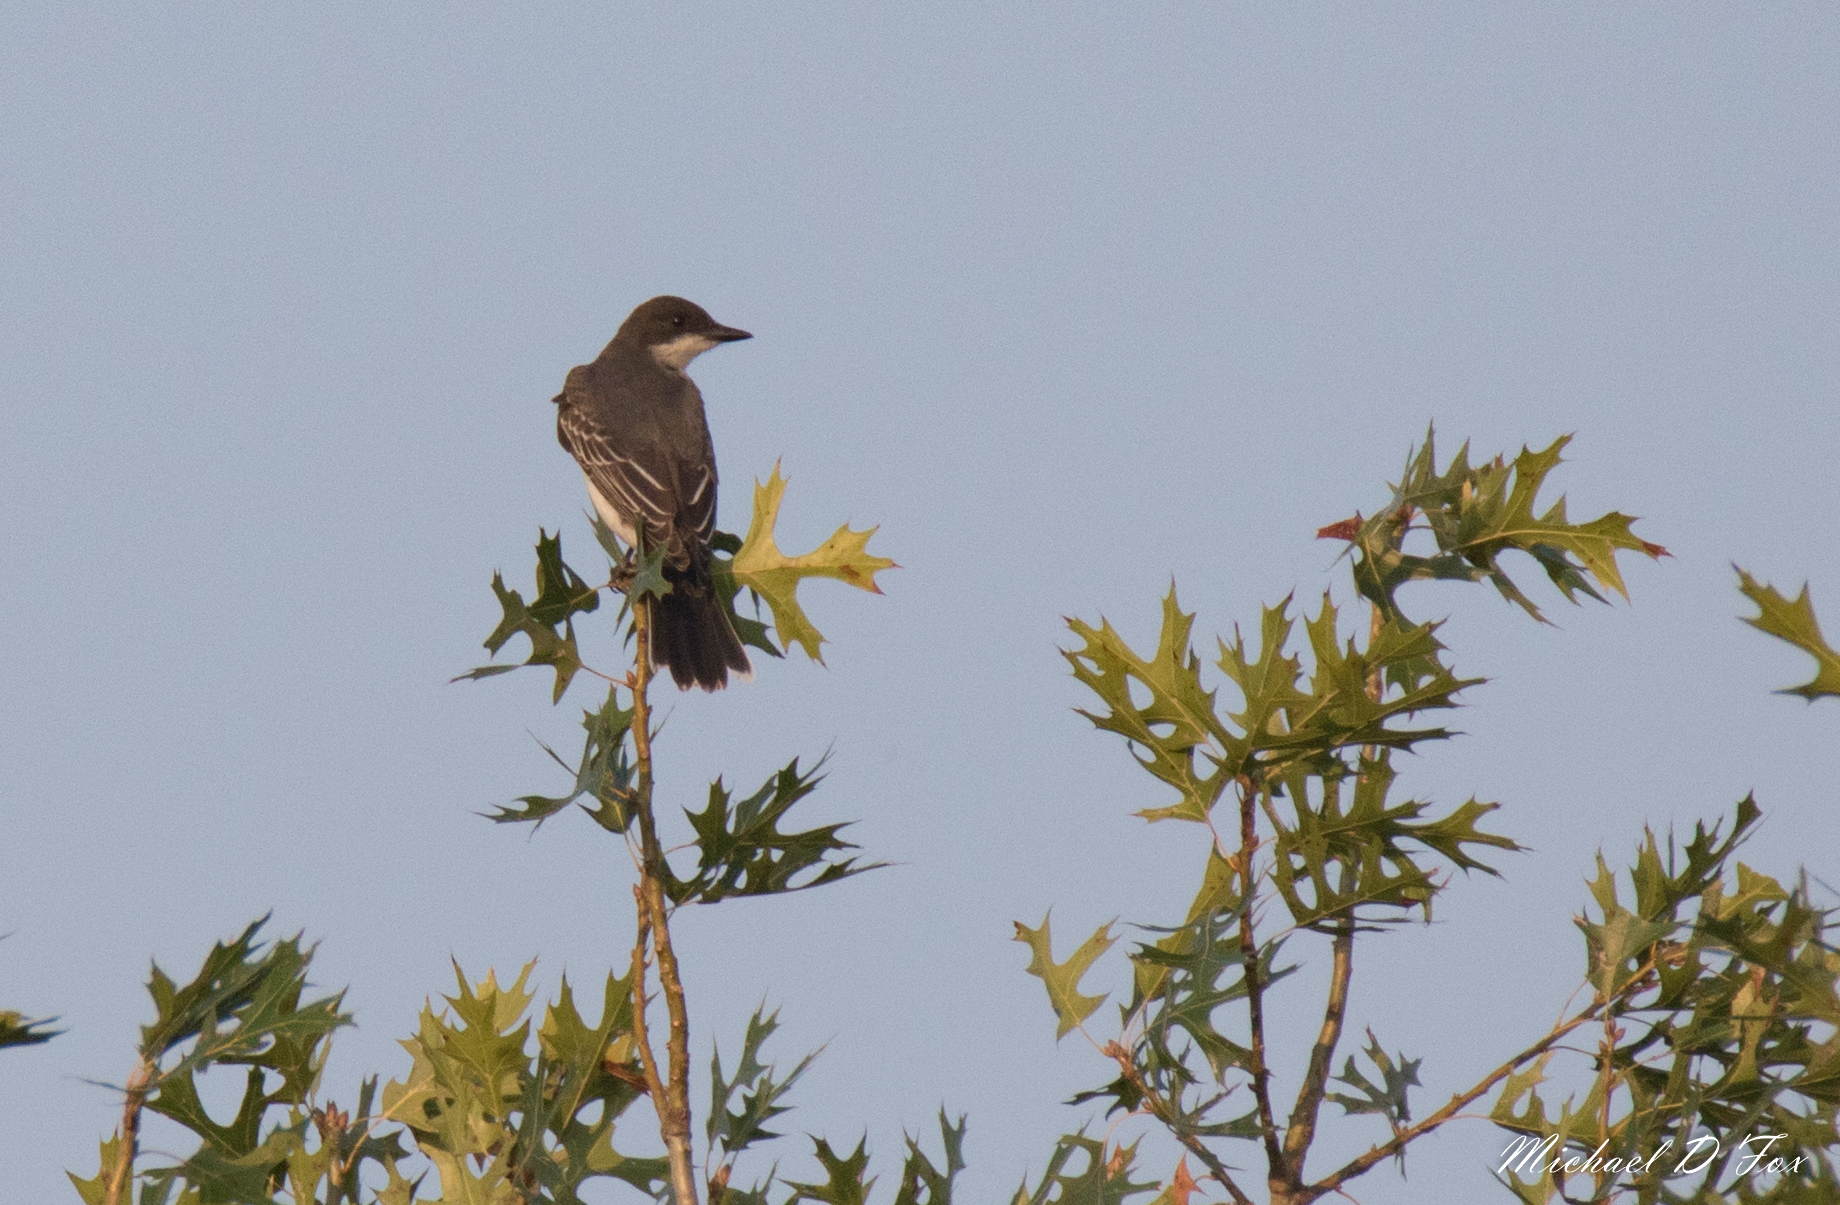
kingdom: Animalia
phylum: Chordata
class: Aves
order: Passeriformes
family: Tyrannidae
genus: Tyrannus
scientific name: Tyrannus tyrannus
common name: Eastern kingbird
